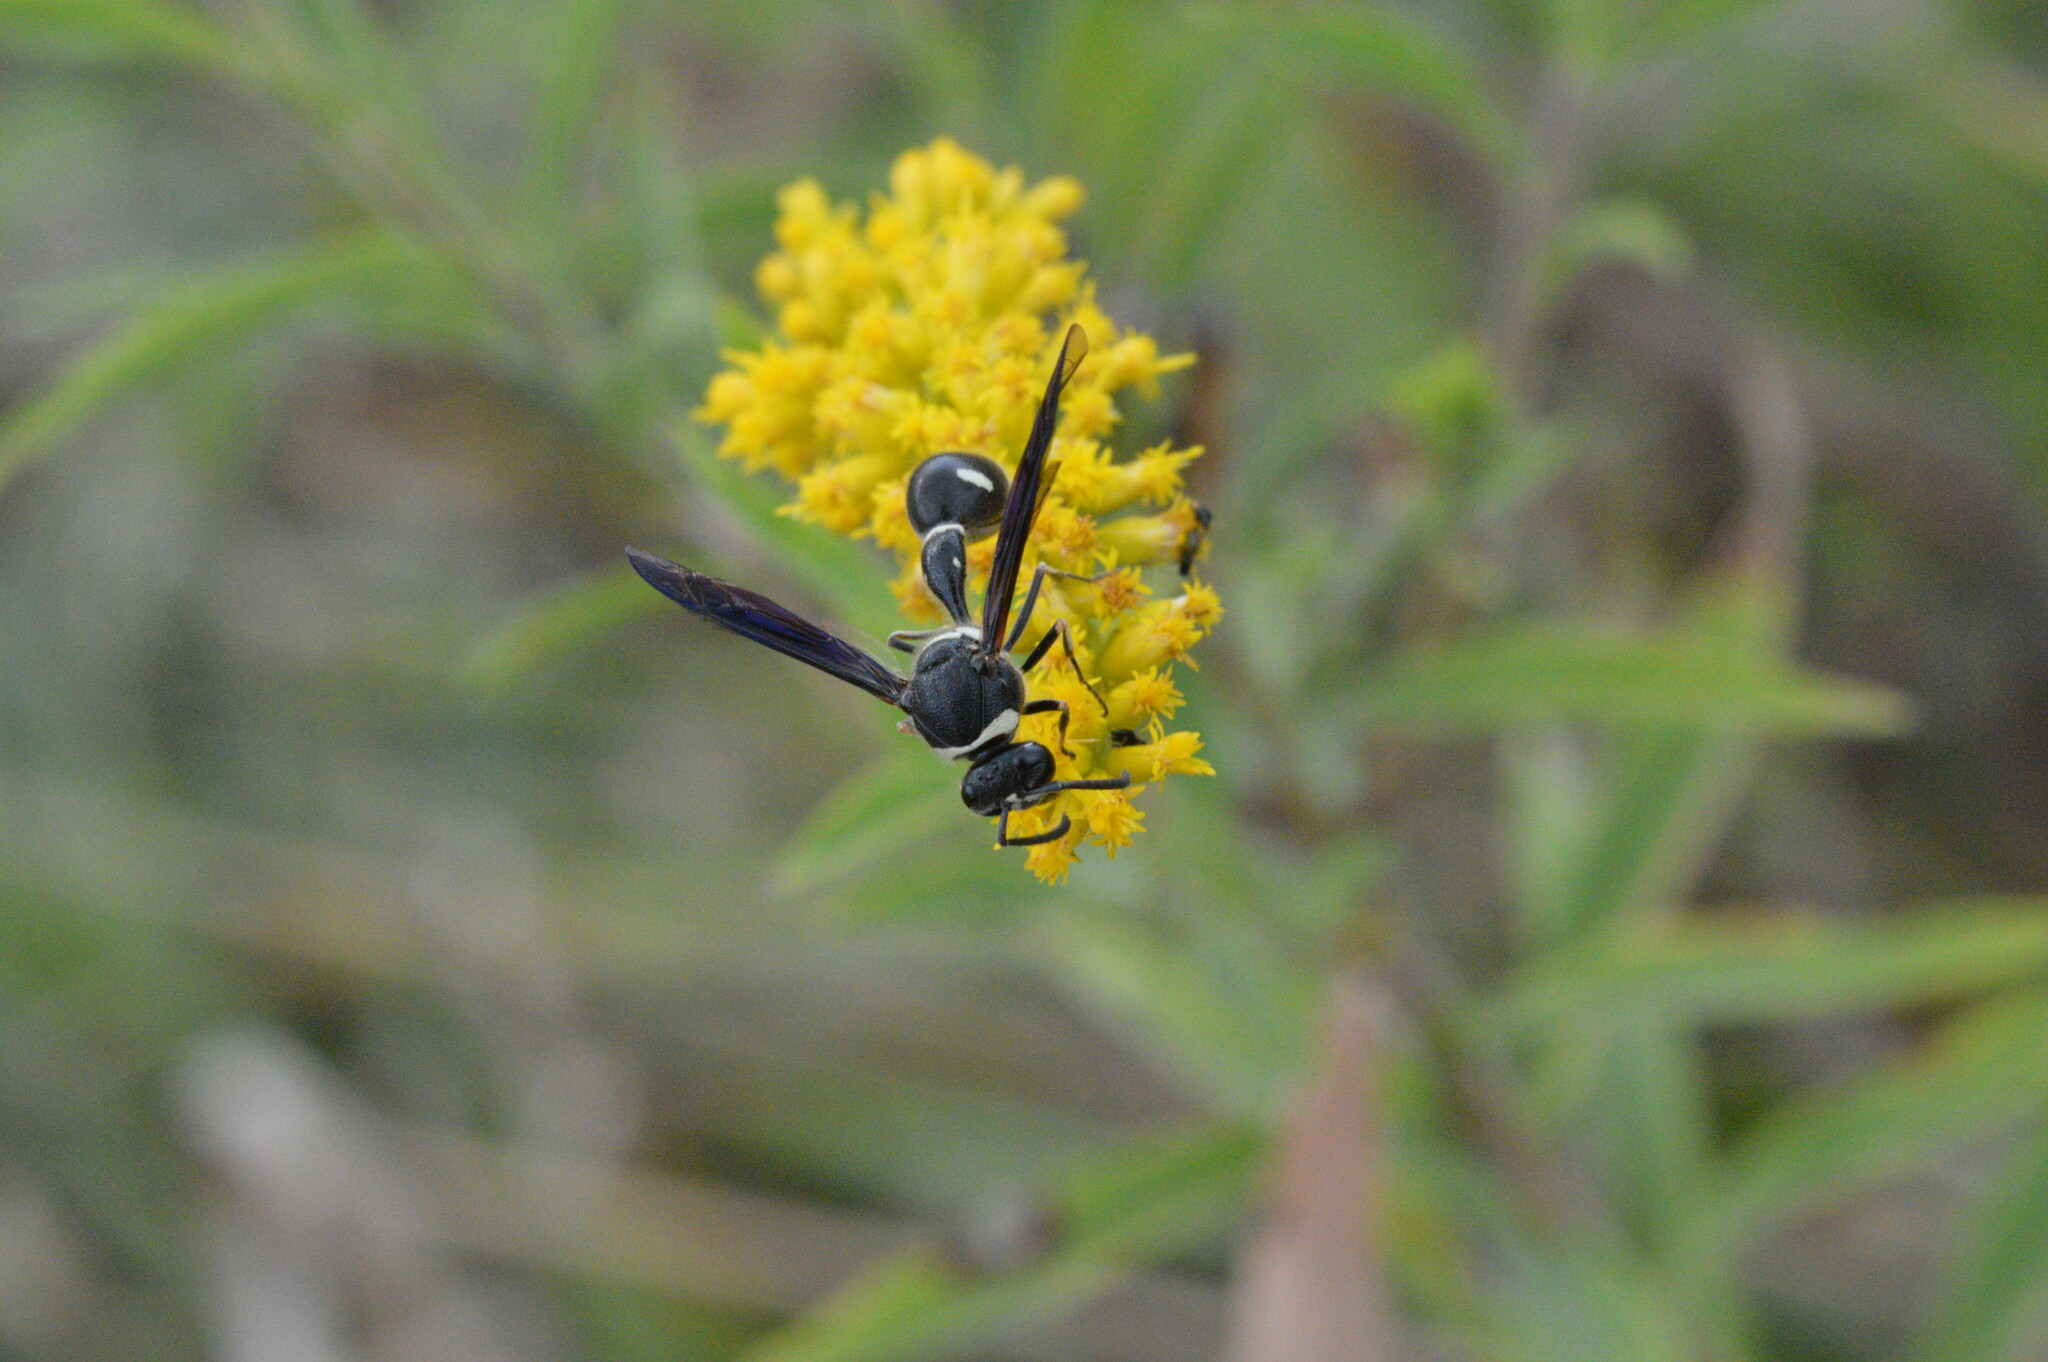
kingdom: Animalia
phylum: Arthropoda
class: Insecta
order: Hymenoptera
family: Vespidae
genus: Eumenes
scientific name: Eumenes fraternus
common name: Fraternal potter wasp
